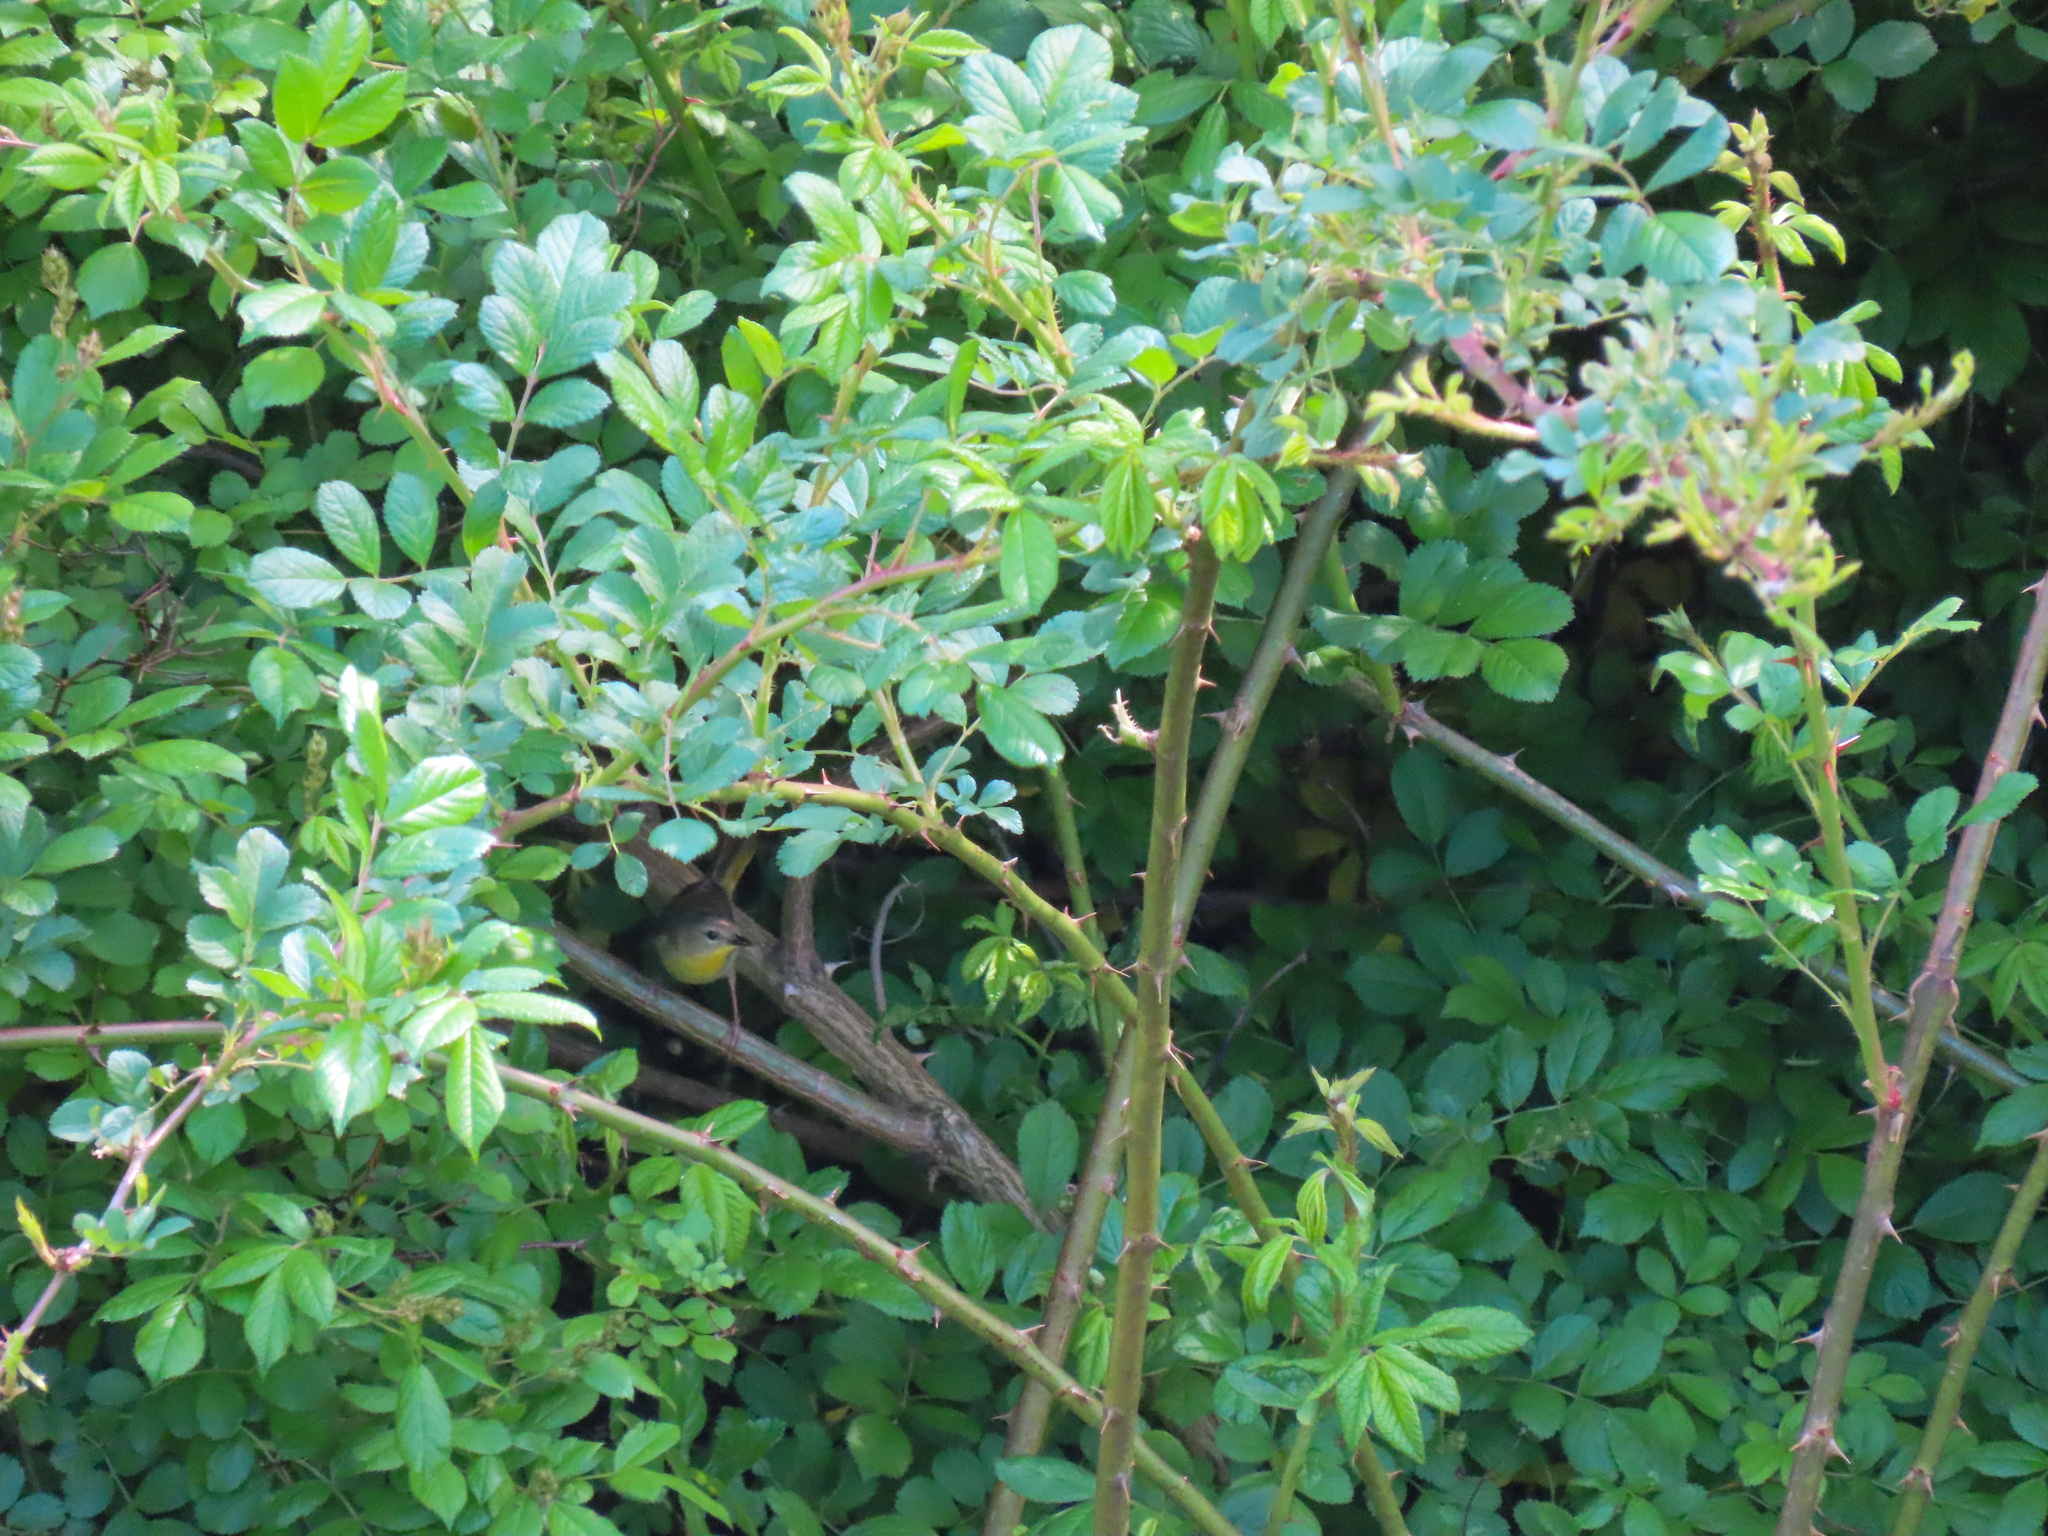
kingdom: Plantae
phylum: Tracheophyta
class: Magnoliopsida
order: Rosales
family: Rosaceae
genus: Rosa
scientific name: Rosa multiflora
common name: Multiflora rose
